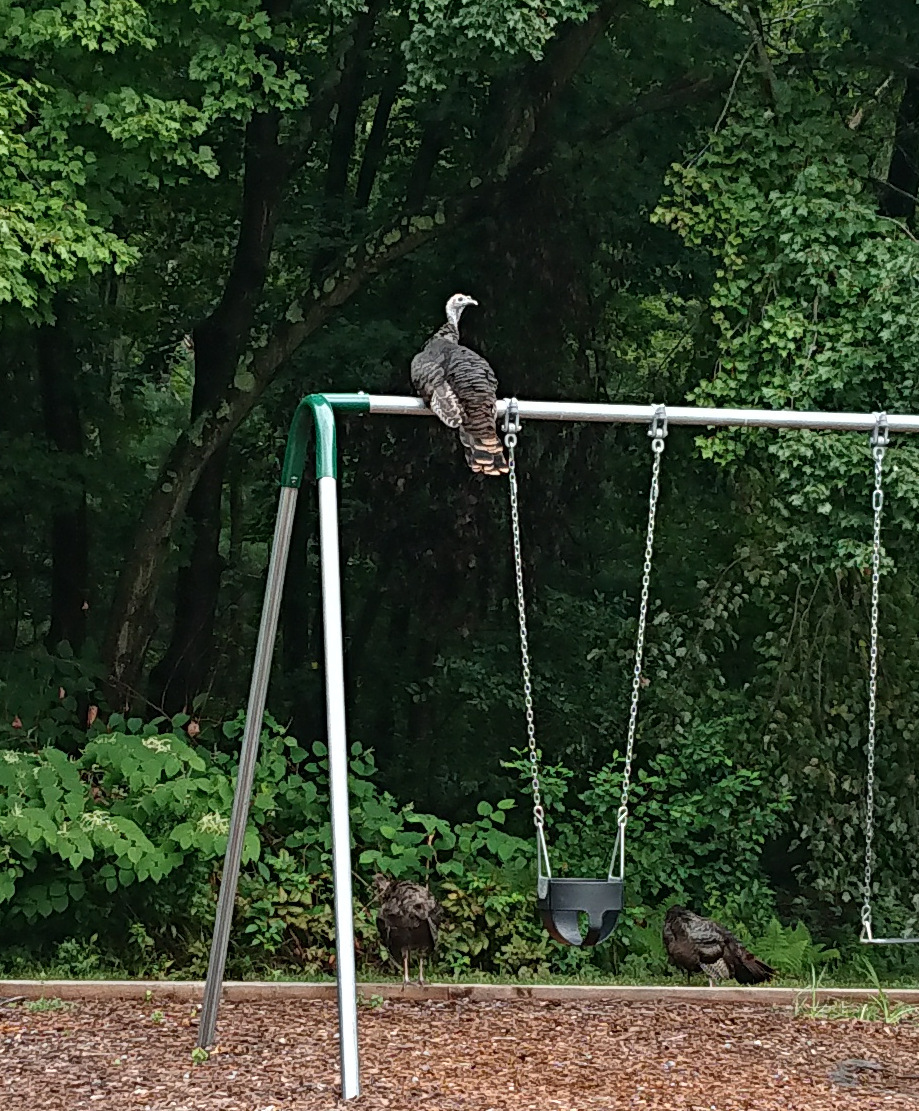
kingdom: Animalia
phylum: Chordata
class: Aves
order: Galliformes
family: Phasianidae
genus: Meleagris
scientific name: Meleagris gallopavo
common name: Wild turkey
